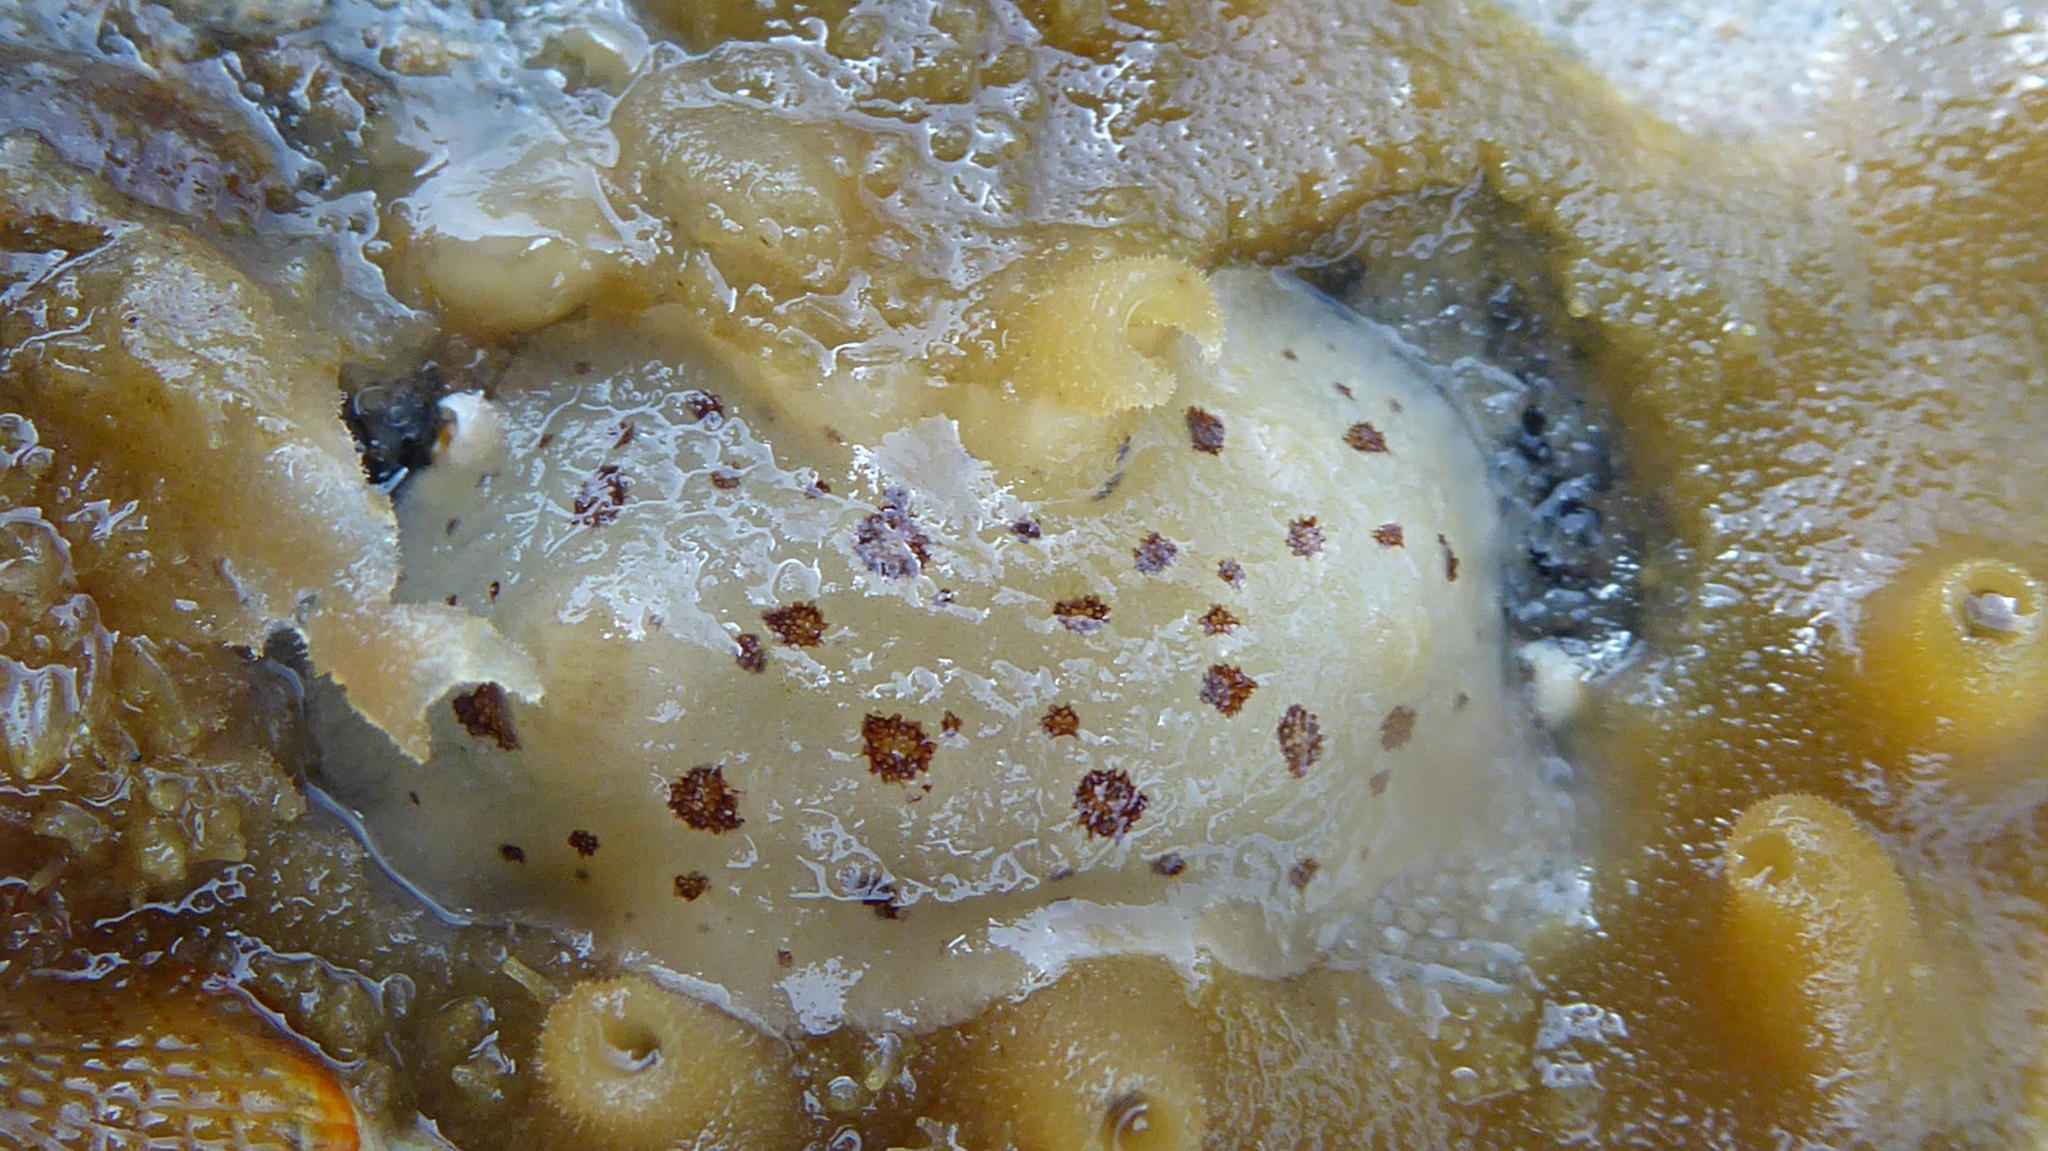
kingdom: Animalia
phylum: Mollusca
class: Gastropoda
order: Nudibranchia
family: Discodorididae
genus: Diaulula
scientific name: Diaulula odonoghuei
